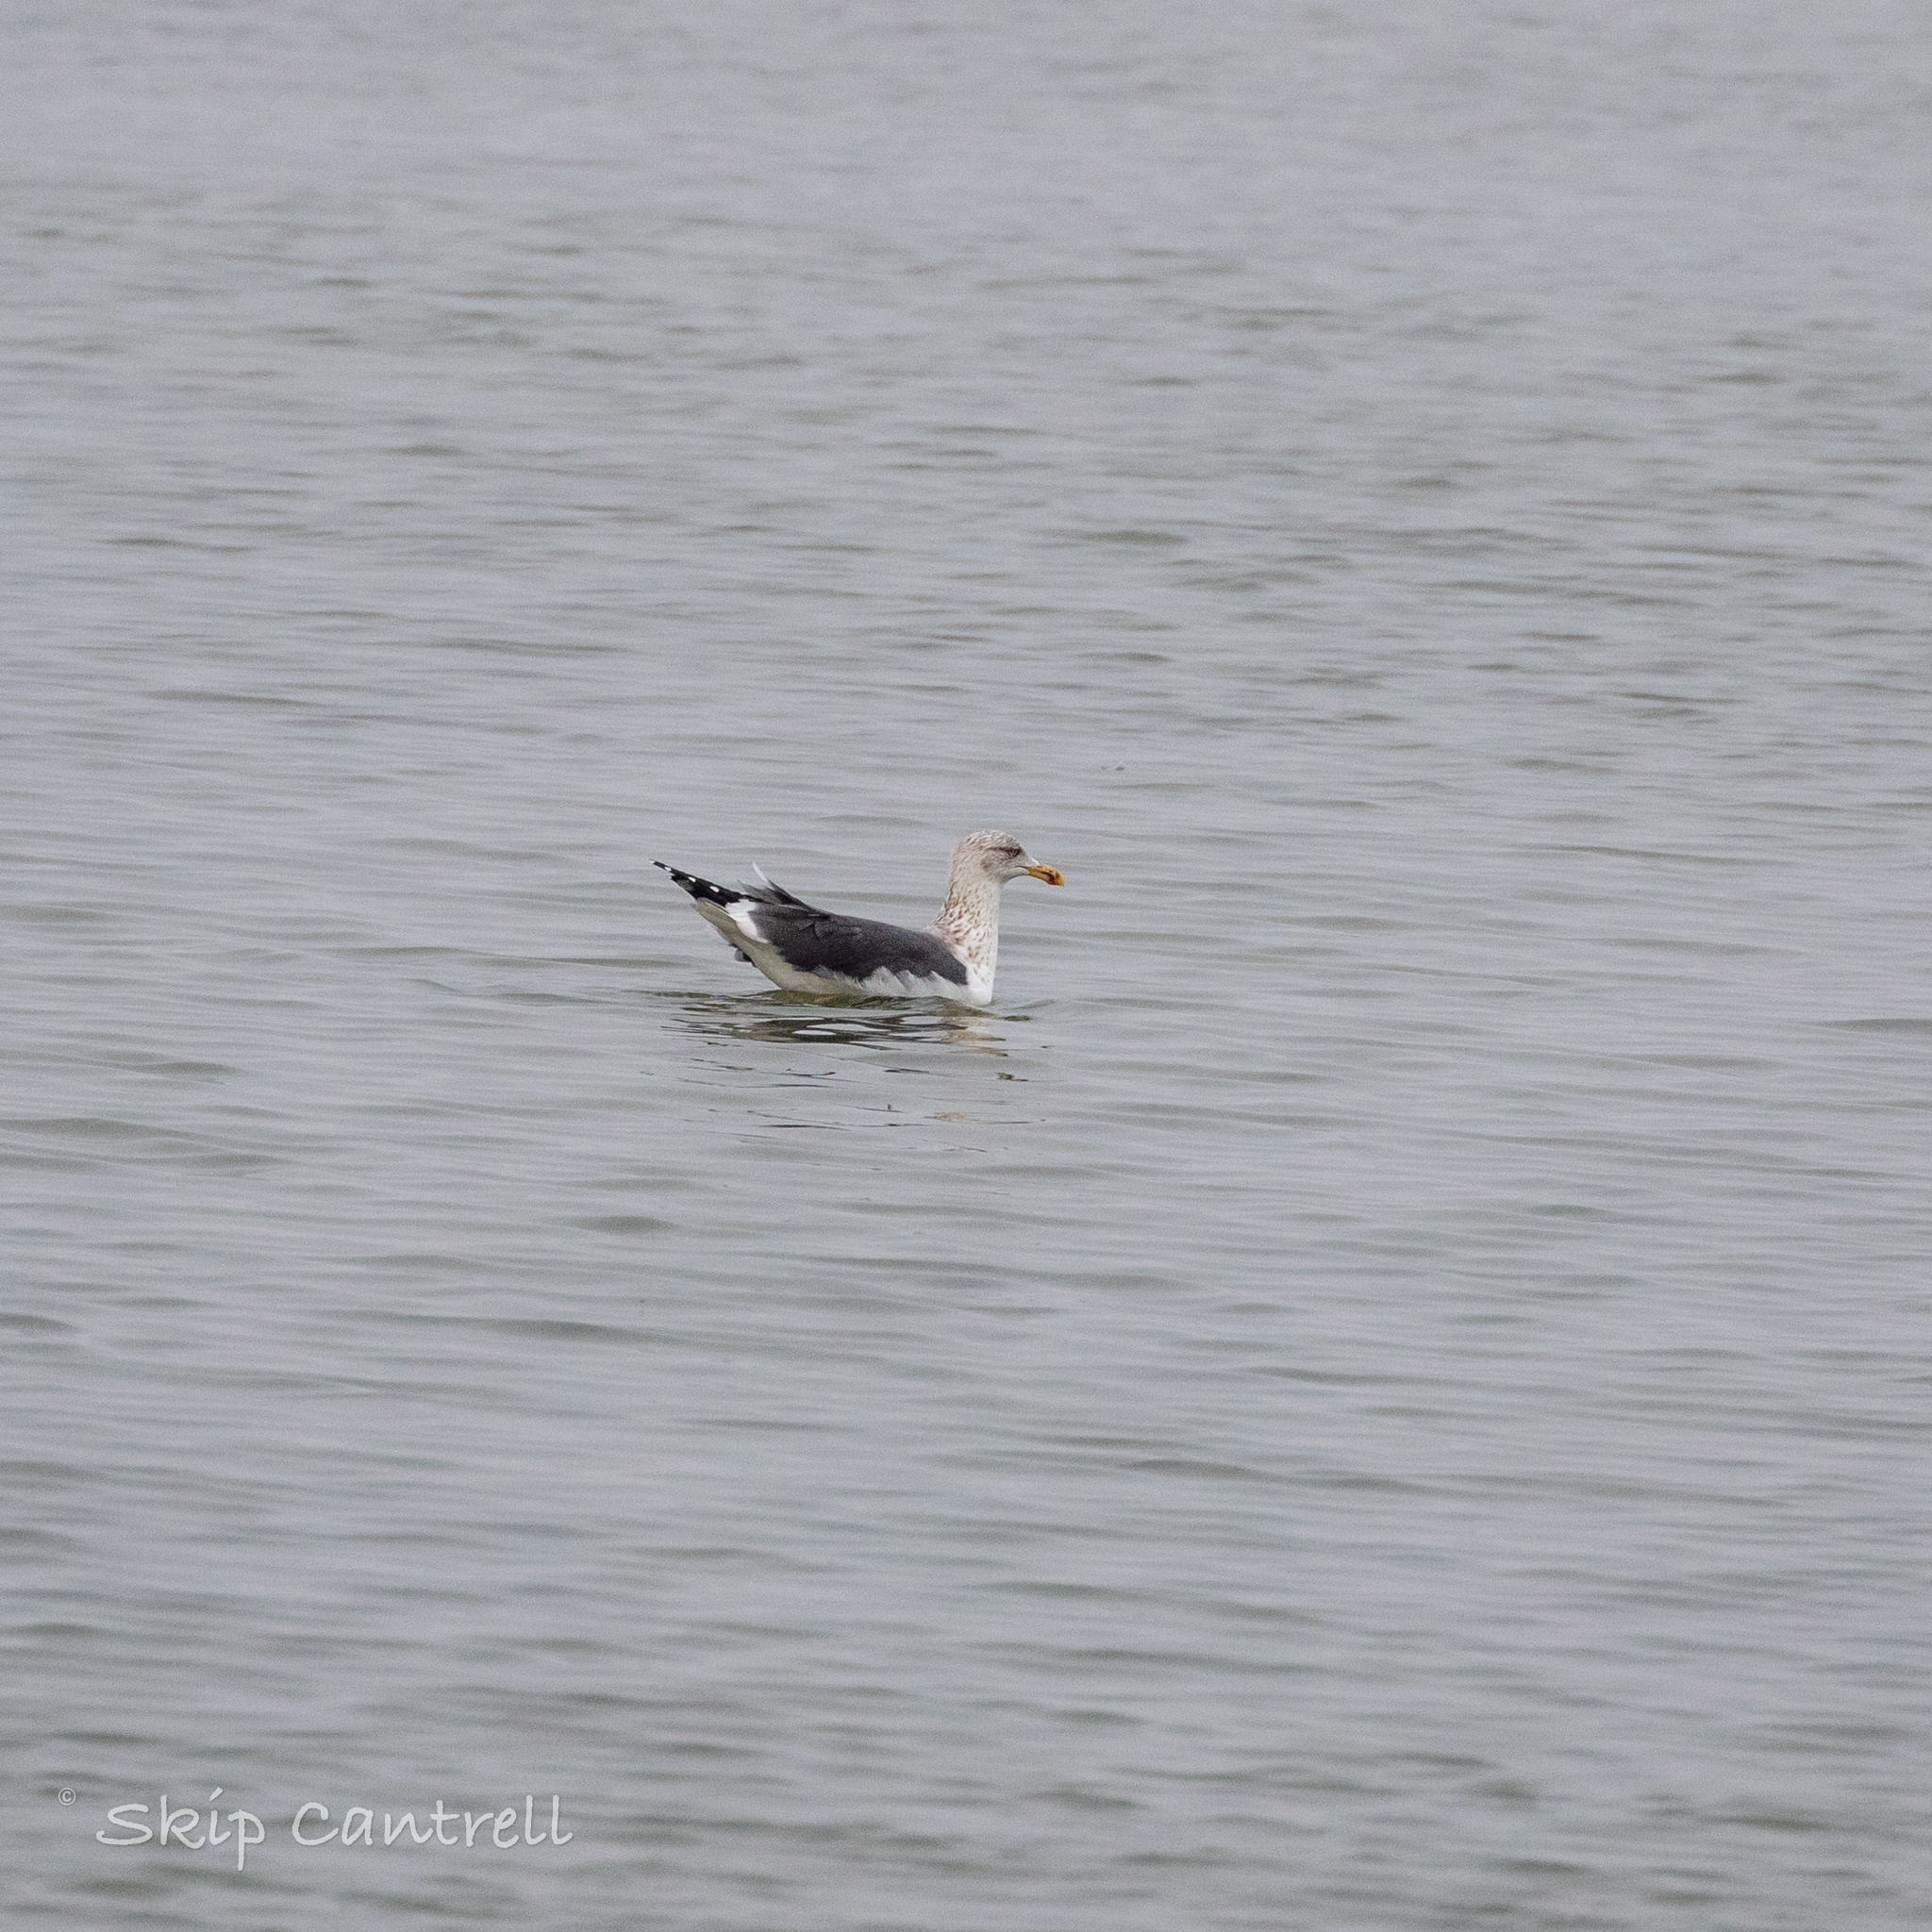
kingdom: Animalia
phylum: Chordata
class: Aves
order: Charadriiformes
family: Laridae
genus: Larus
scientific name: Larus fuscus
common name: Lesser black-backed gull
